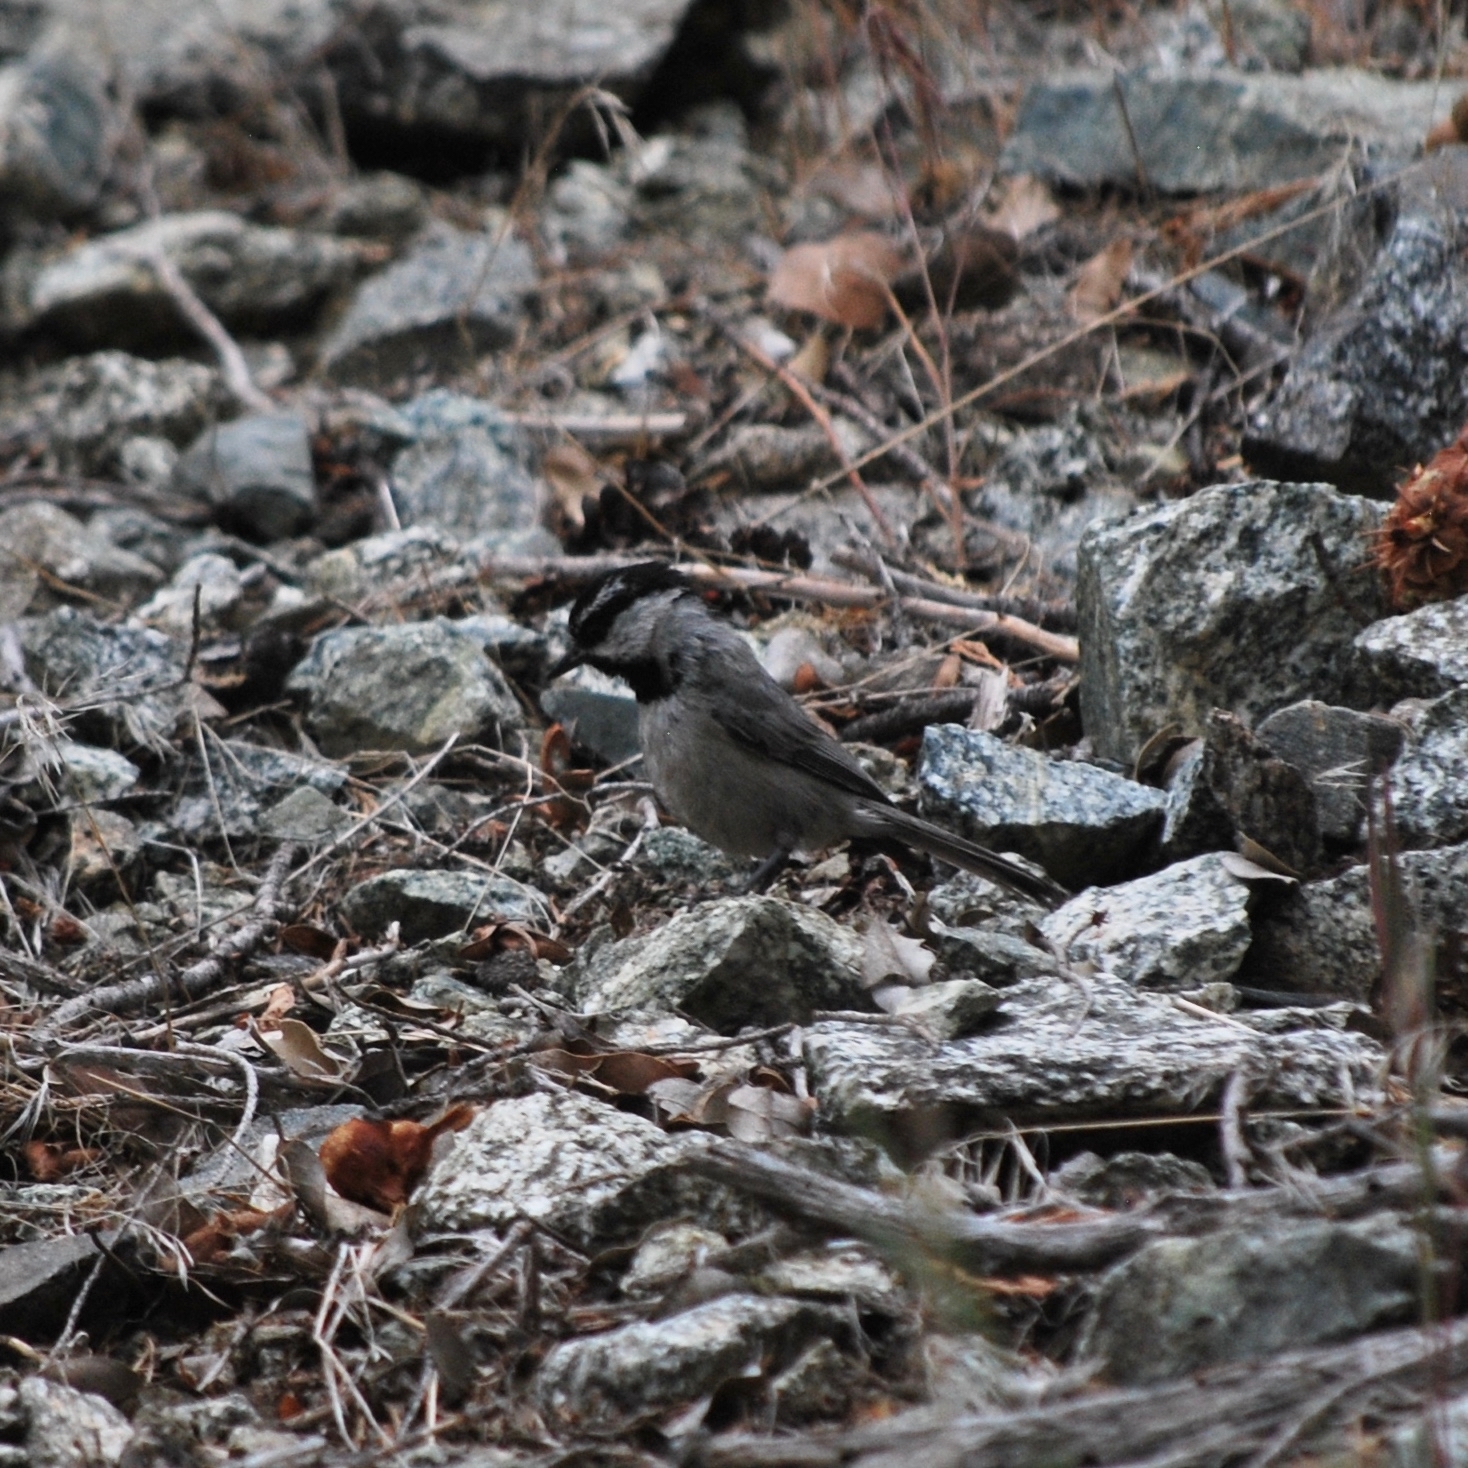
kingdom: Animalia
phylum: Chordata
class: Aves
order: Passeriformes
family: Paridae
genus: Poecile
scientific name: Poecile gambeli
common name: Mountain chickadee
